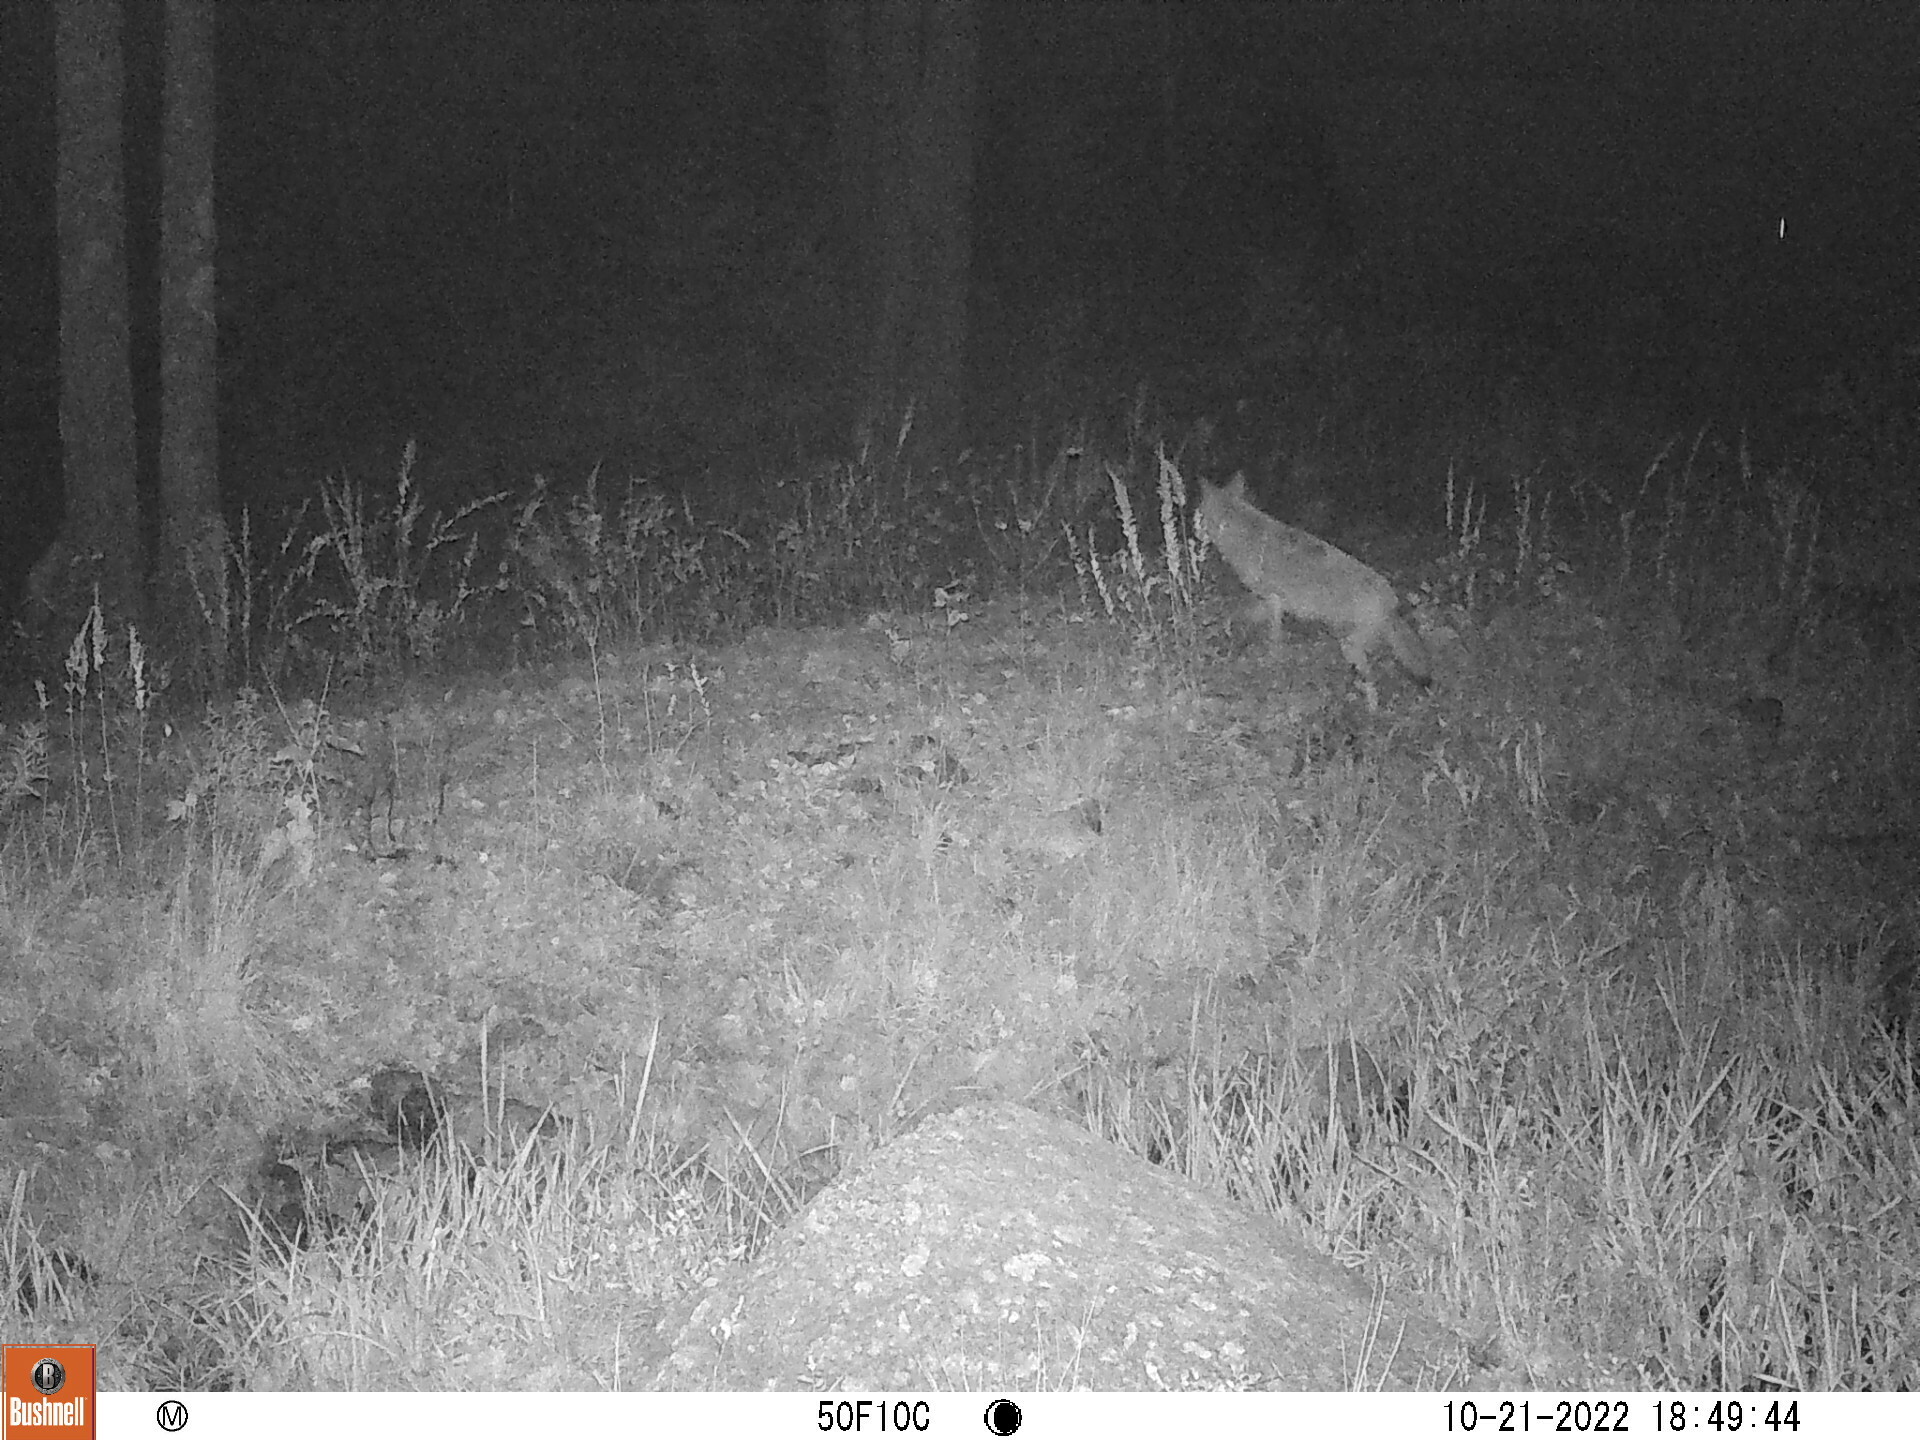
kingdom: Animalia
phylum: Chordata
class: Mammalia
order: Carnivora
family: Canidae
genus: Canis
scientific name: Canis latrans
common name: Coyote
